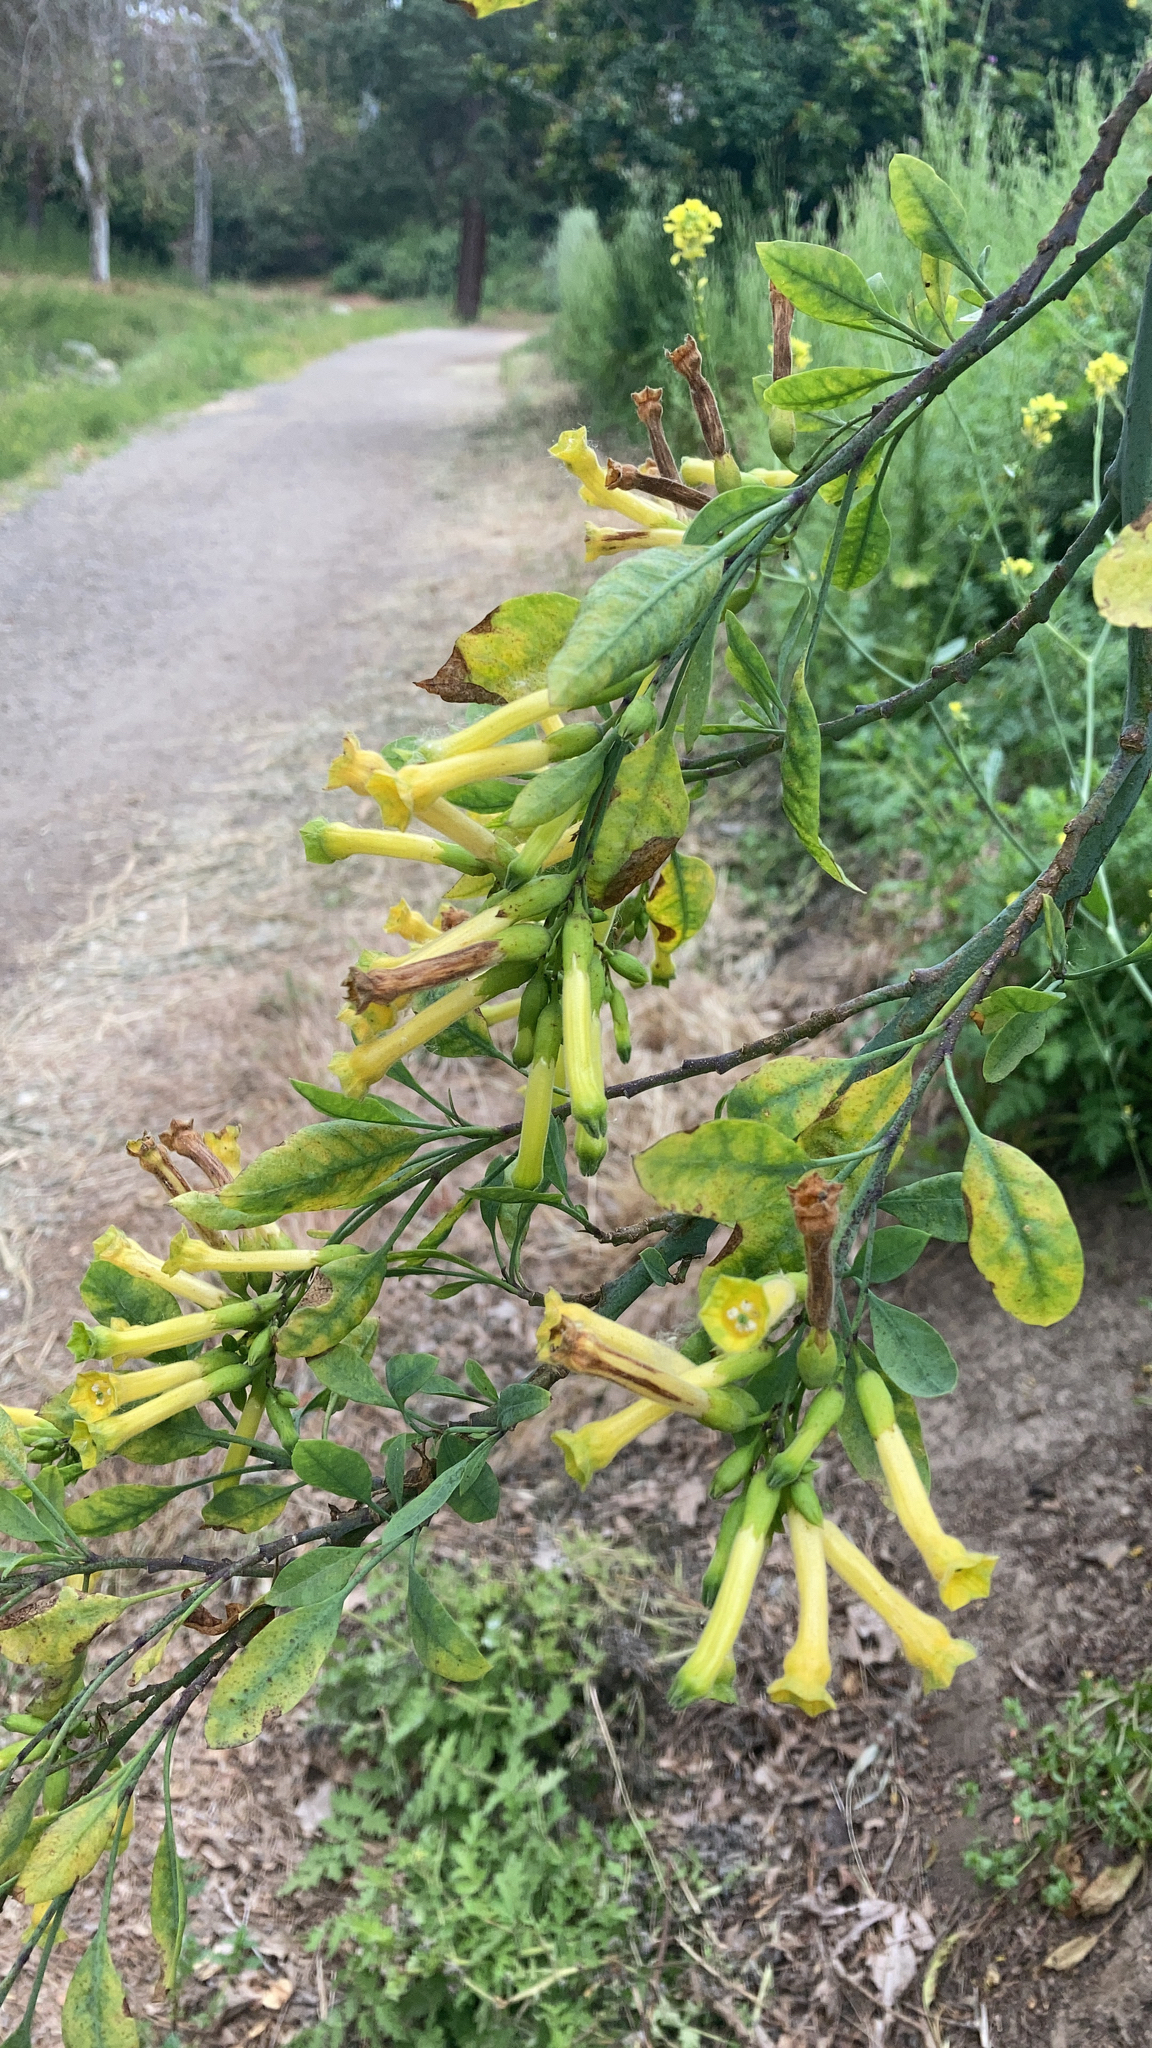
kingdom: Plantae
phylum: Tracheophyta
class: Magnoliopsida
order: Solanales
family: Solanaceae
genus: Nicotiana
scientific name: Nicotiana glauca
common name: Tree tobacco
